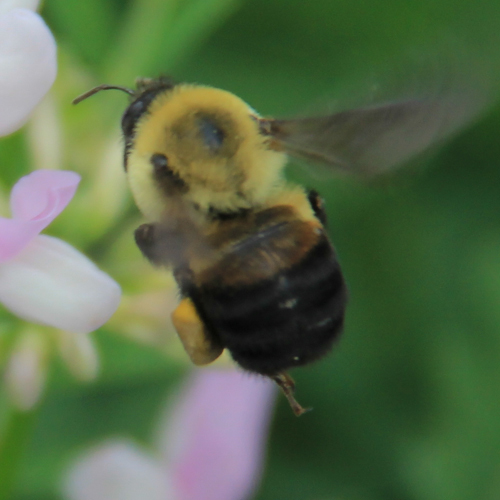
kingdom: Animalia
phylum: Arthropoda
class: Insecta
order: Hymenoptera
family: Apidae
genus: Bombus
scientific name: Bombus griseocollis
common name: Brown-belted bumble bee
